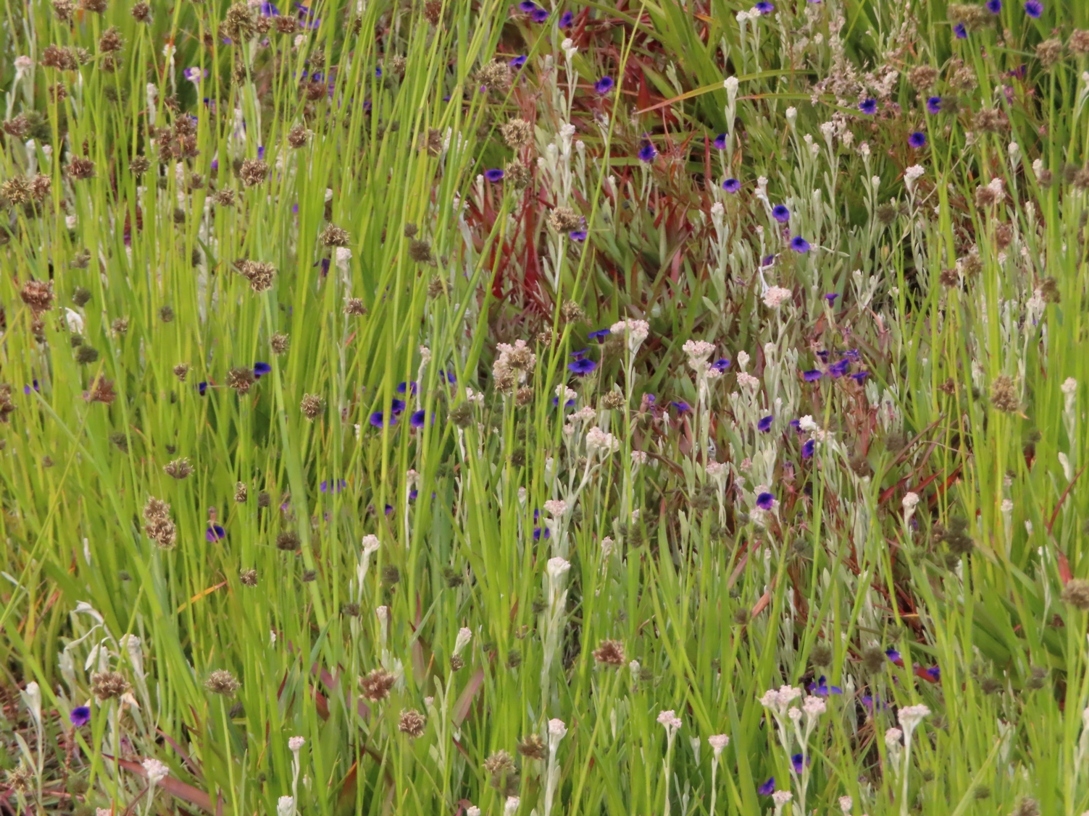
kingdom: Plantae
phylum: Tracheophyta
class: Magnoliopsida
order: Asterales
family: Campanulaceae
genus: Monopsis
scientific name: Monopsis debilis
